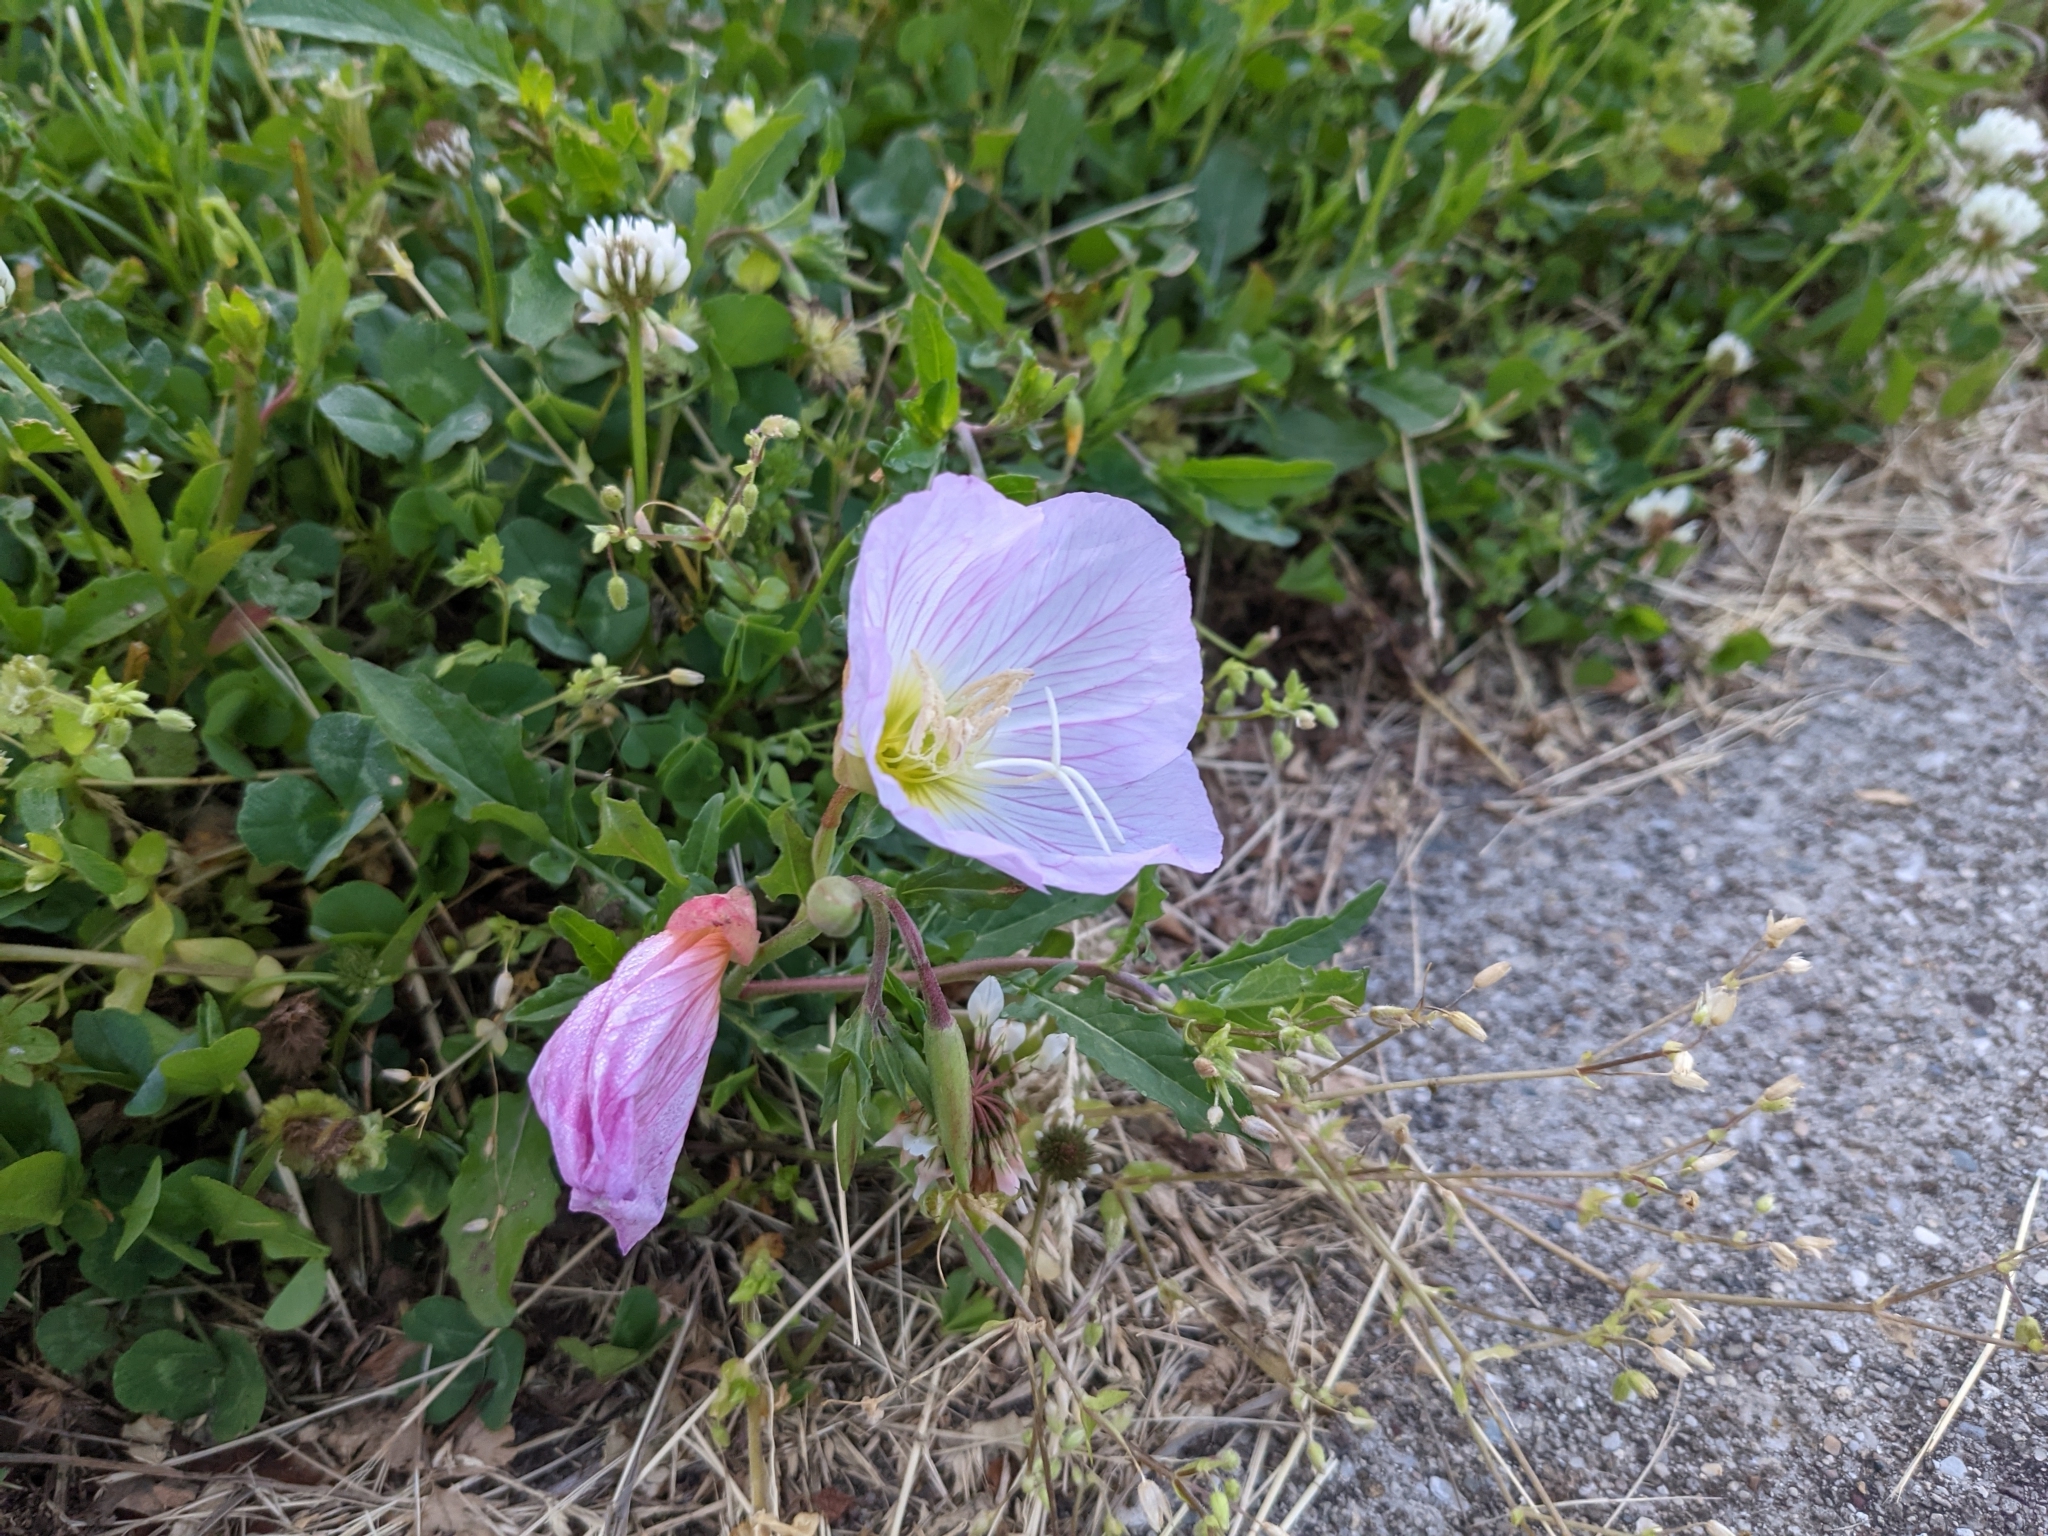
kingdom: Plantae
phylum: Tracheophyta
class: Magnoliopsida
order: Myrtales
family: Onagraceae
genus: Oenothera
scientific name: Oenothera speciosa
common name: White evening-primrose
